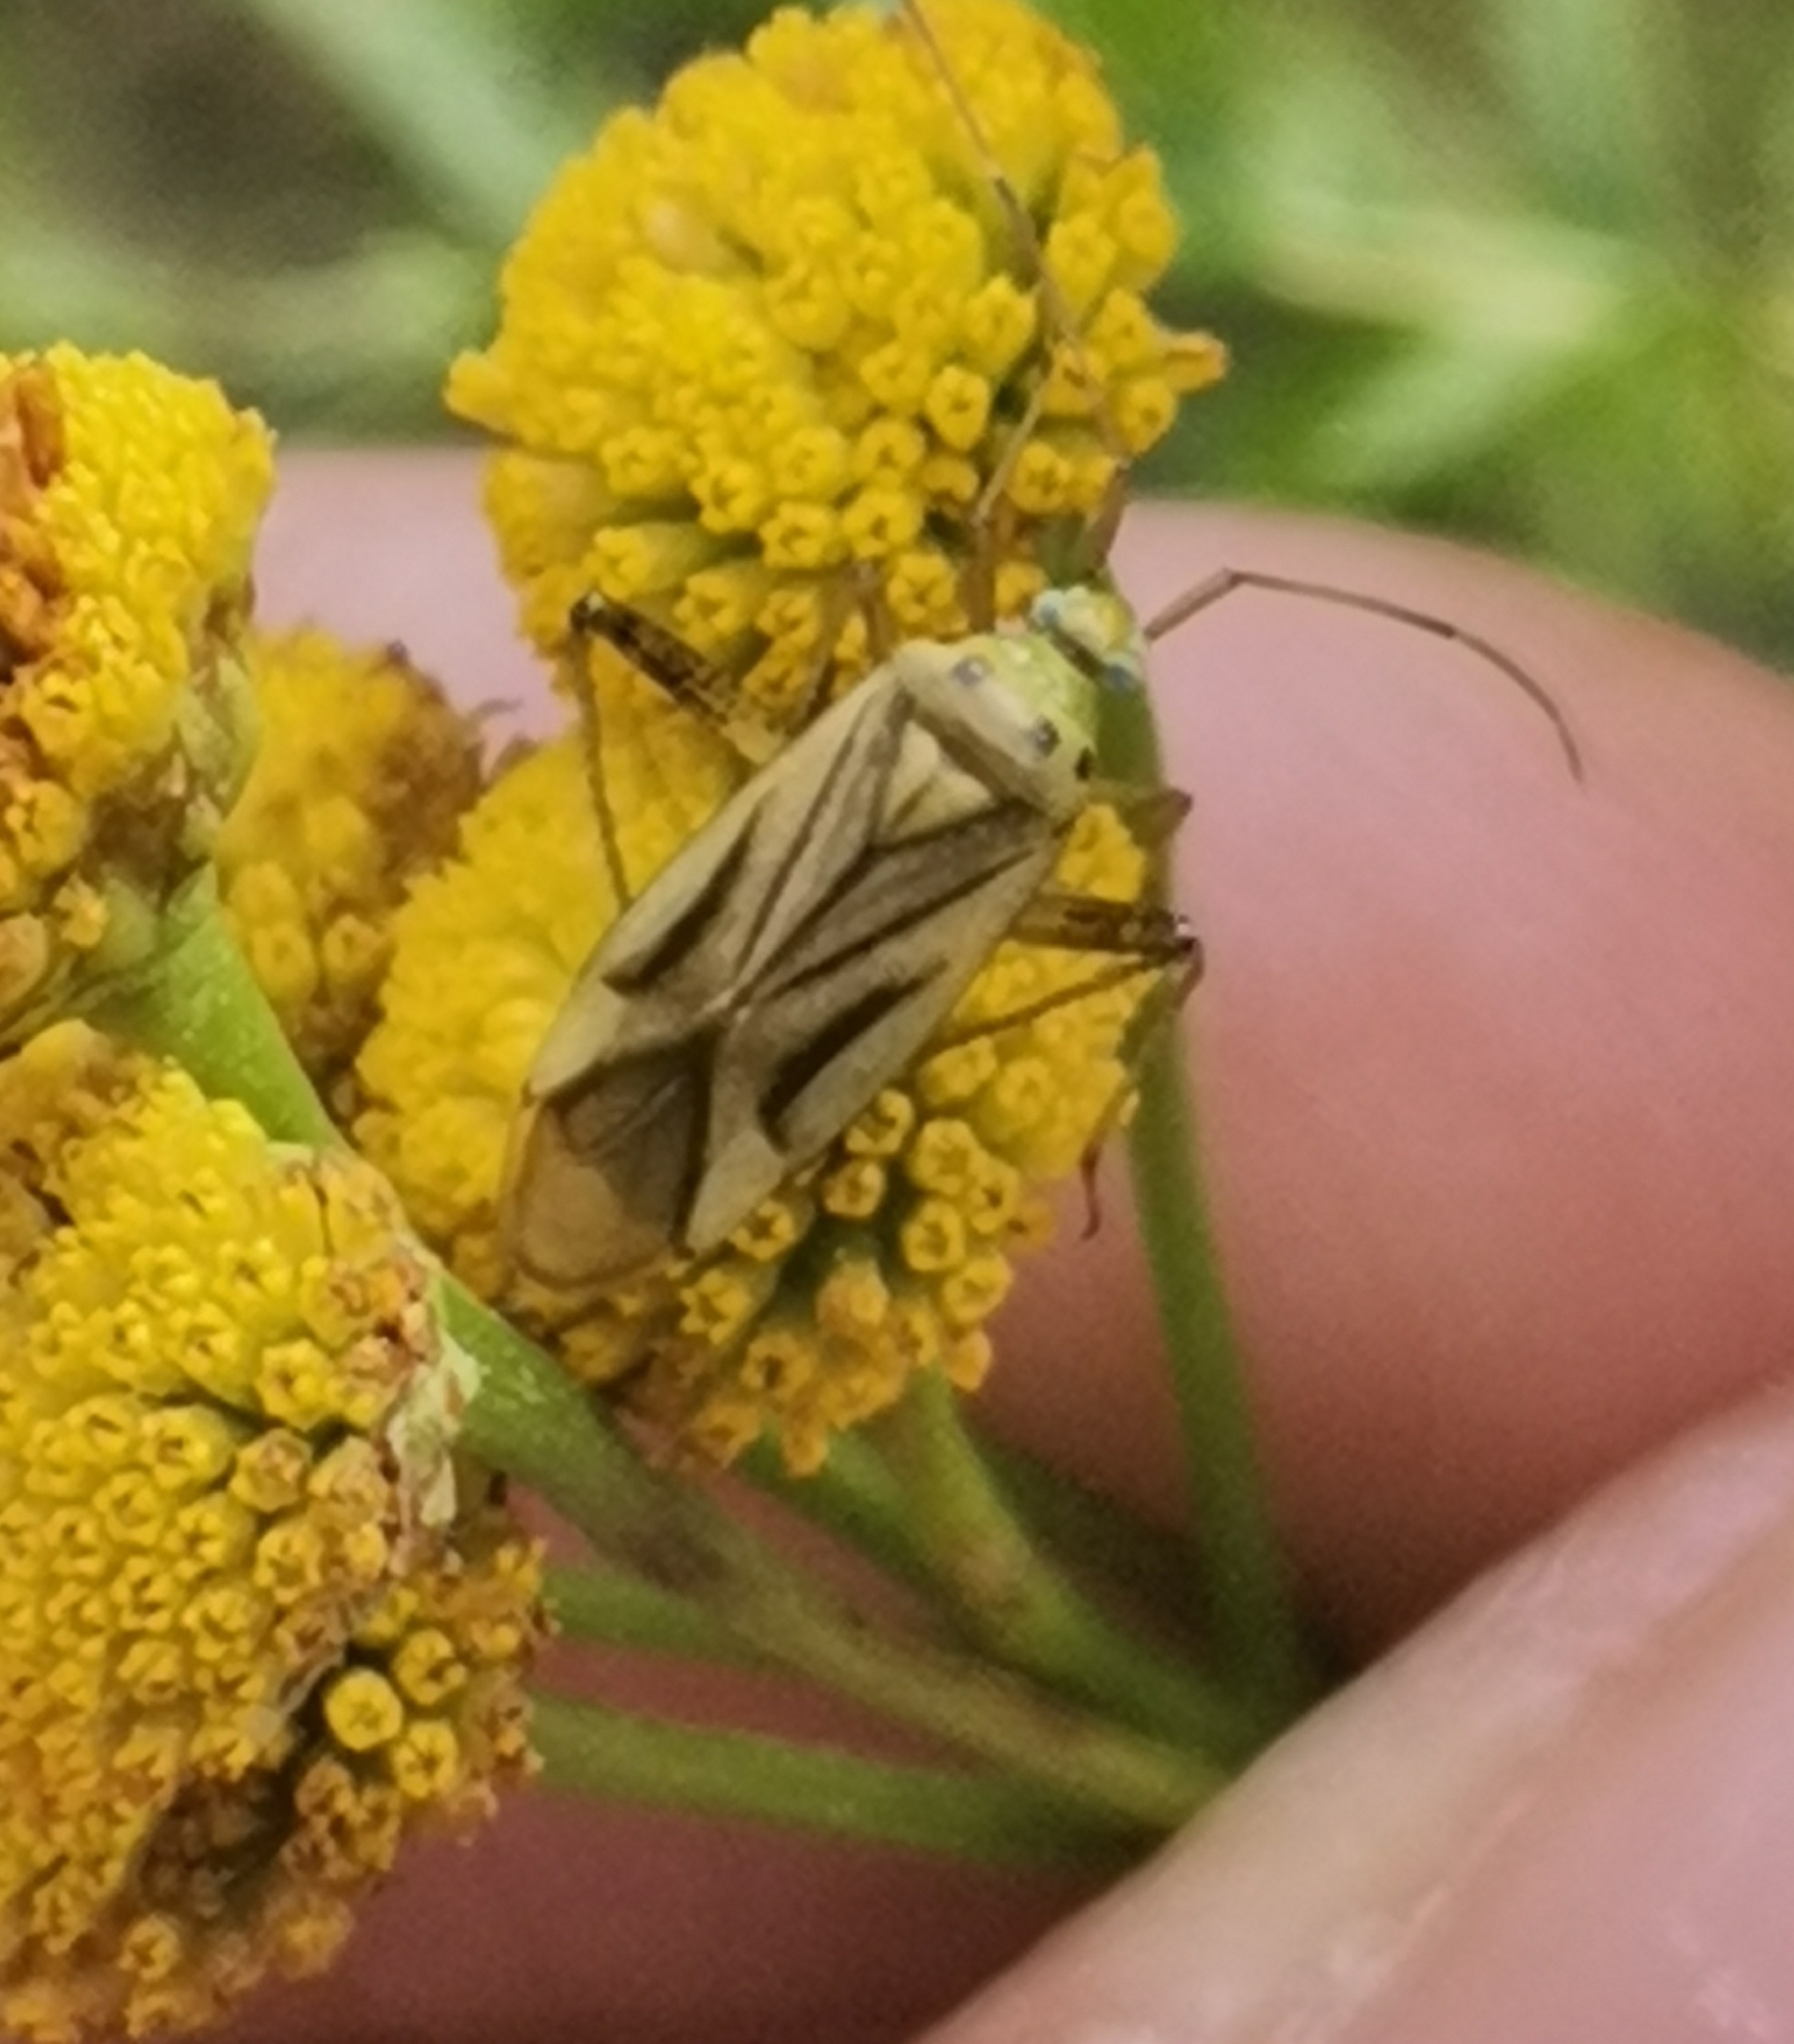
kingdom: Animalia
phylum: Arthropoda
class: Insecta
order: Hemiptera
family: Miridae
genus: Adelphocoris
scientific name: Adelphocoris quadripunctatus
